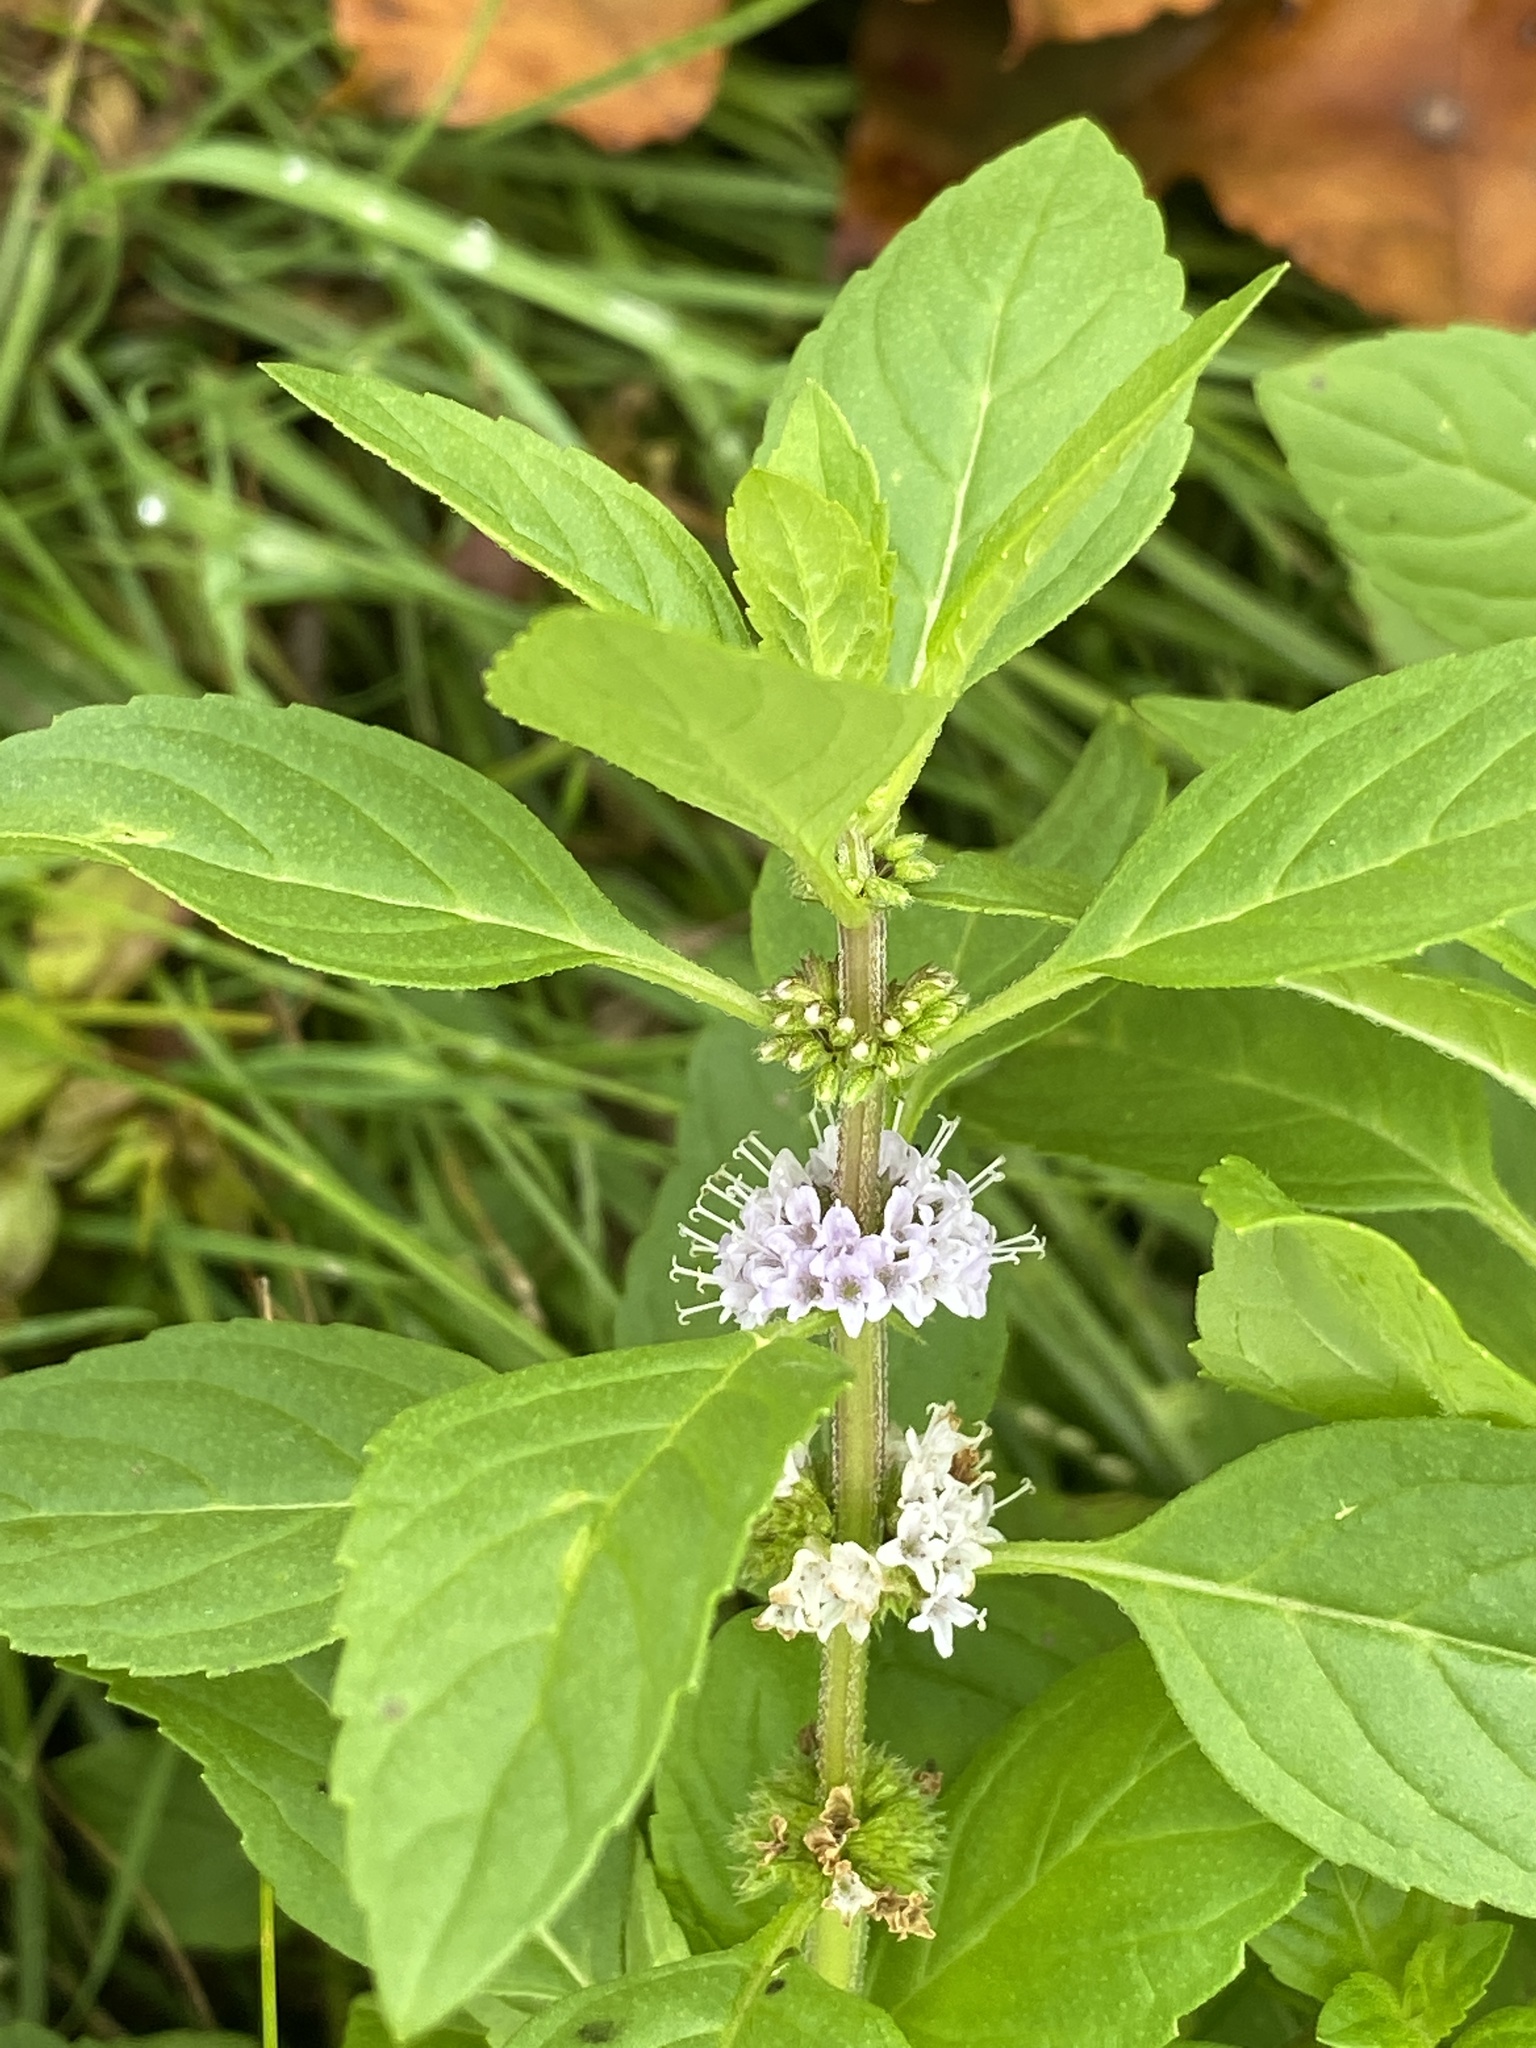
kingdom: Plantae
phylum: Tracheophyta
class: Magnoliopsida
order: Lamiales
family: Lamiaceae
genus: Mentha
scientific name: Mentha arvensis
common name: Corn mint
